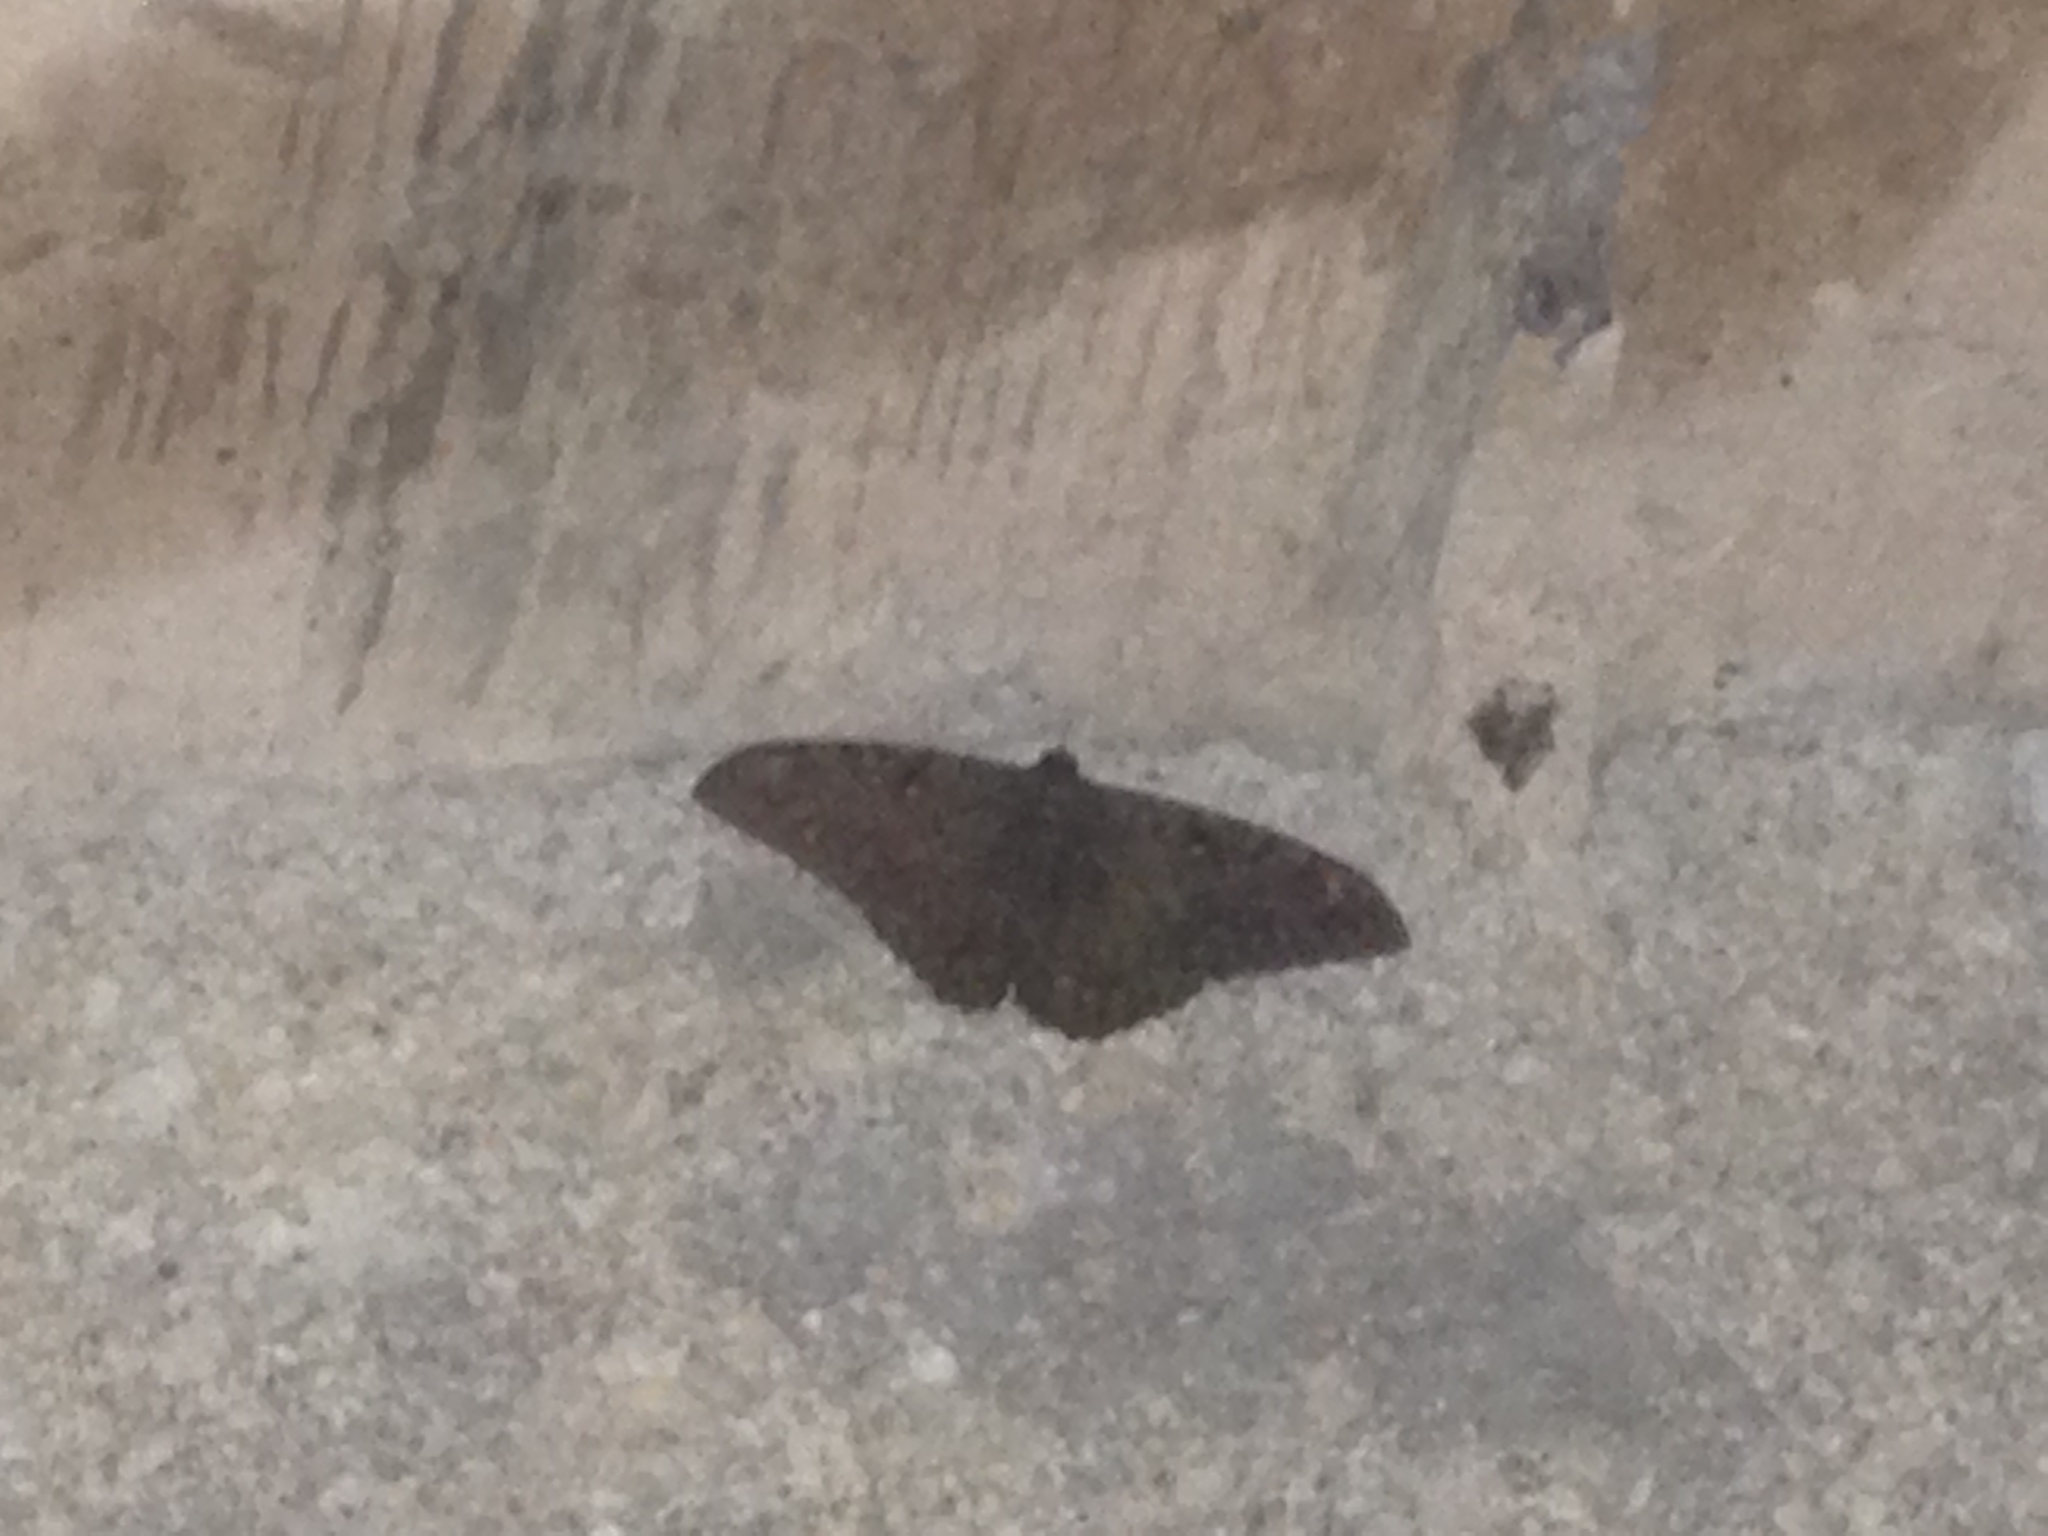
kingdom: Animalia
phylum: Arthropoda
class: Insecta
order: Lepidoptera
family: Erebidae
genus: Ascalapha
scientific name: Ascalapha odorata
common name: Black witch
